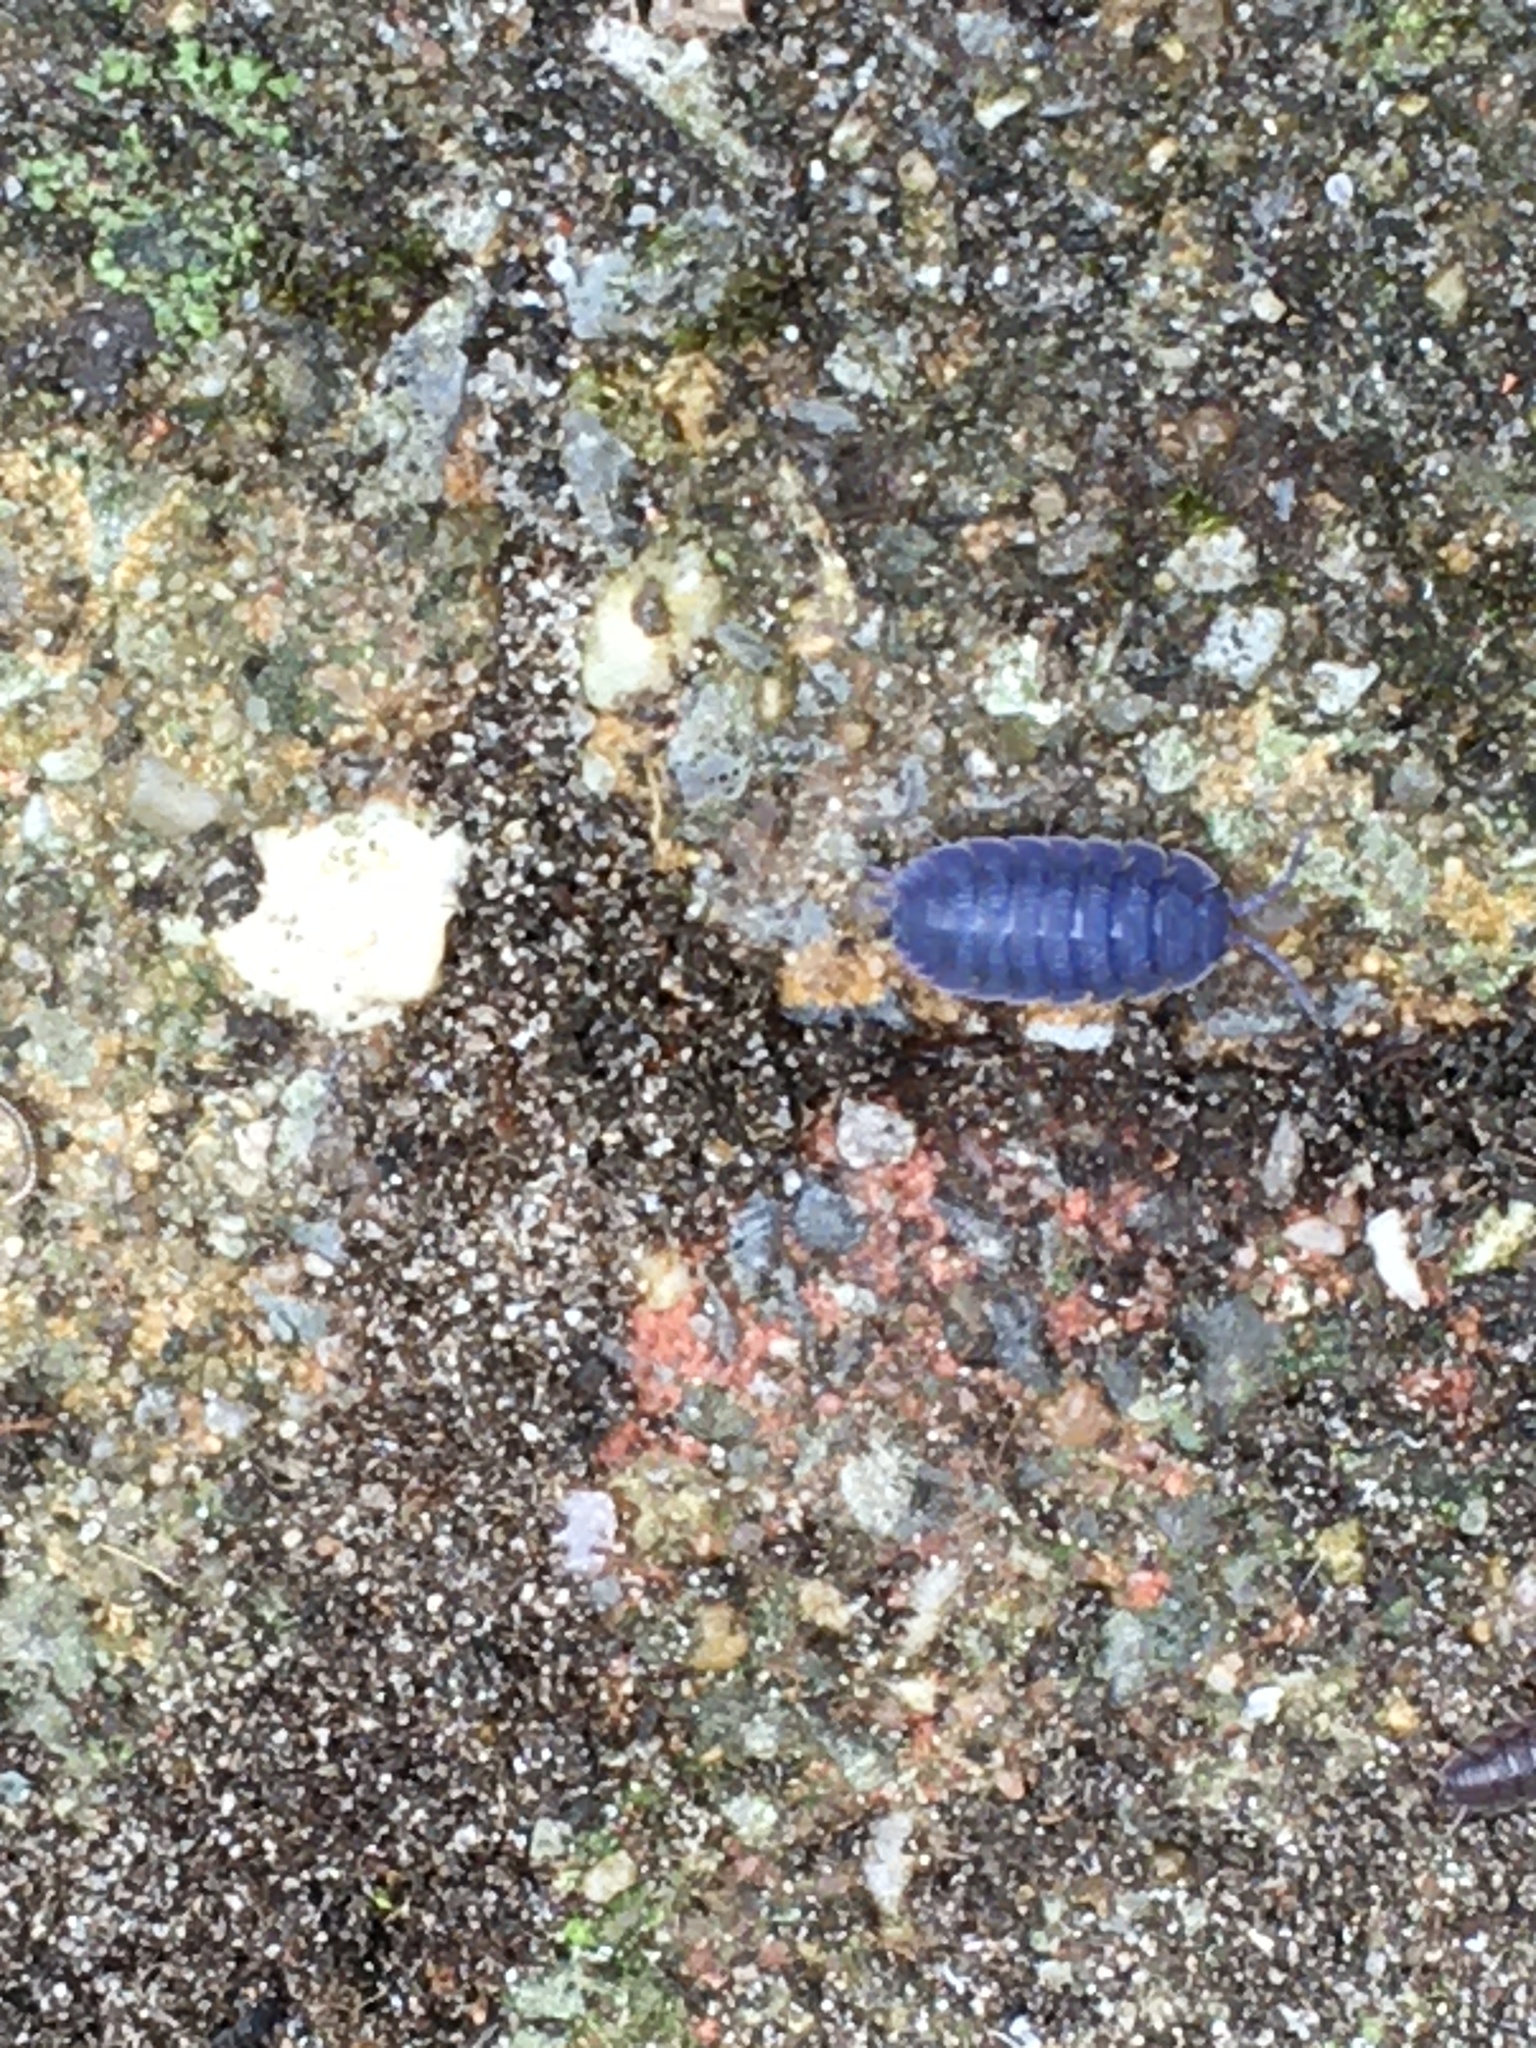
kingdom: Animalia
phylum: Arthropoda
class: Malacostraca
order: Isopoda
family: Porcellionidae
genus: Porcellio
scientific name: Porcellio scaber
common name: Common rough woodlouse
